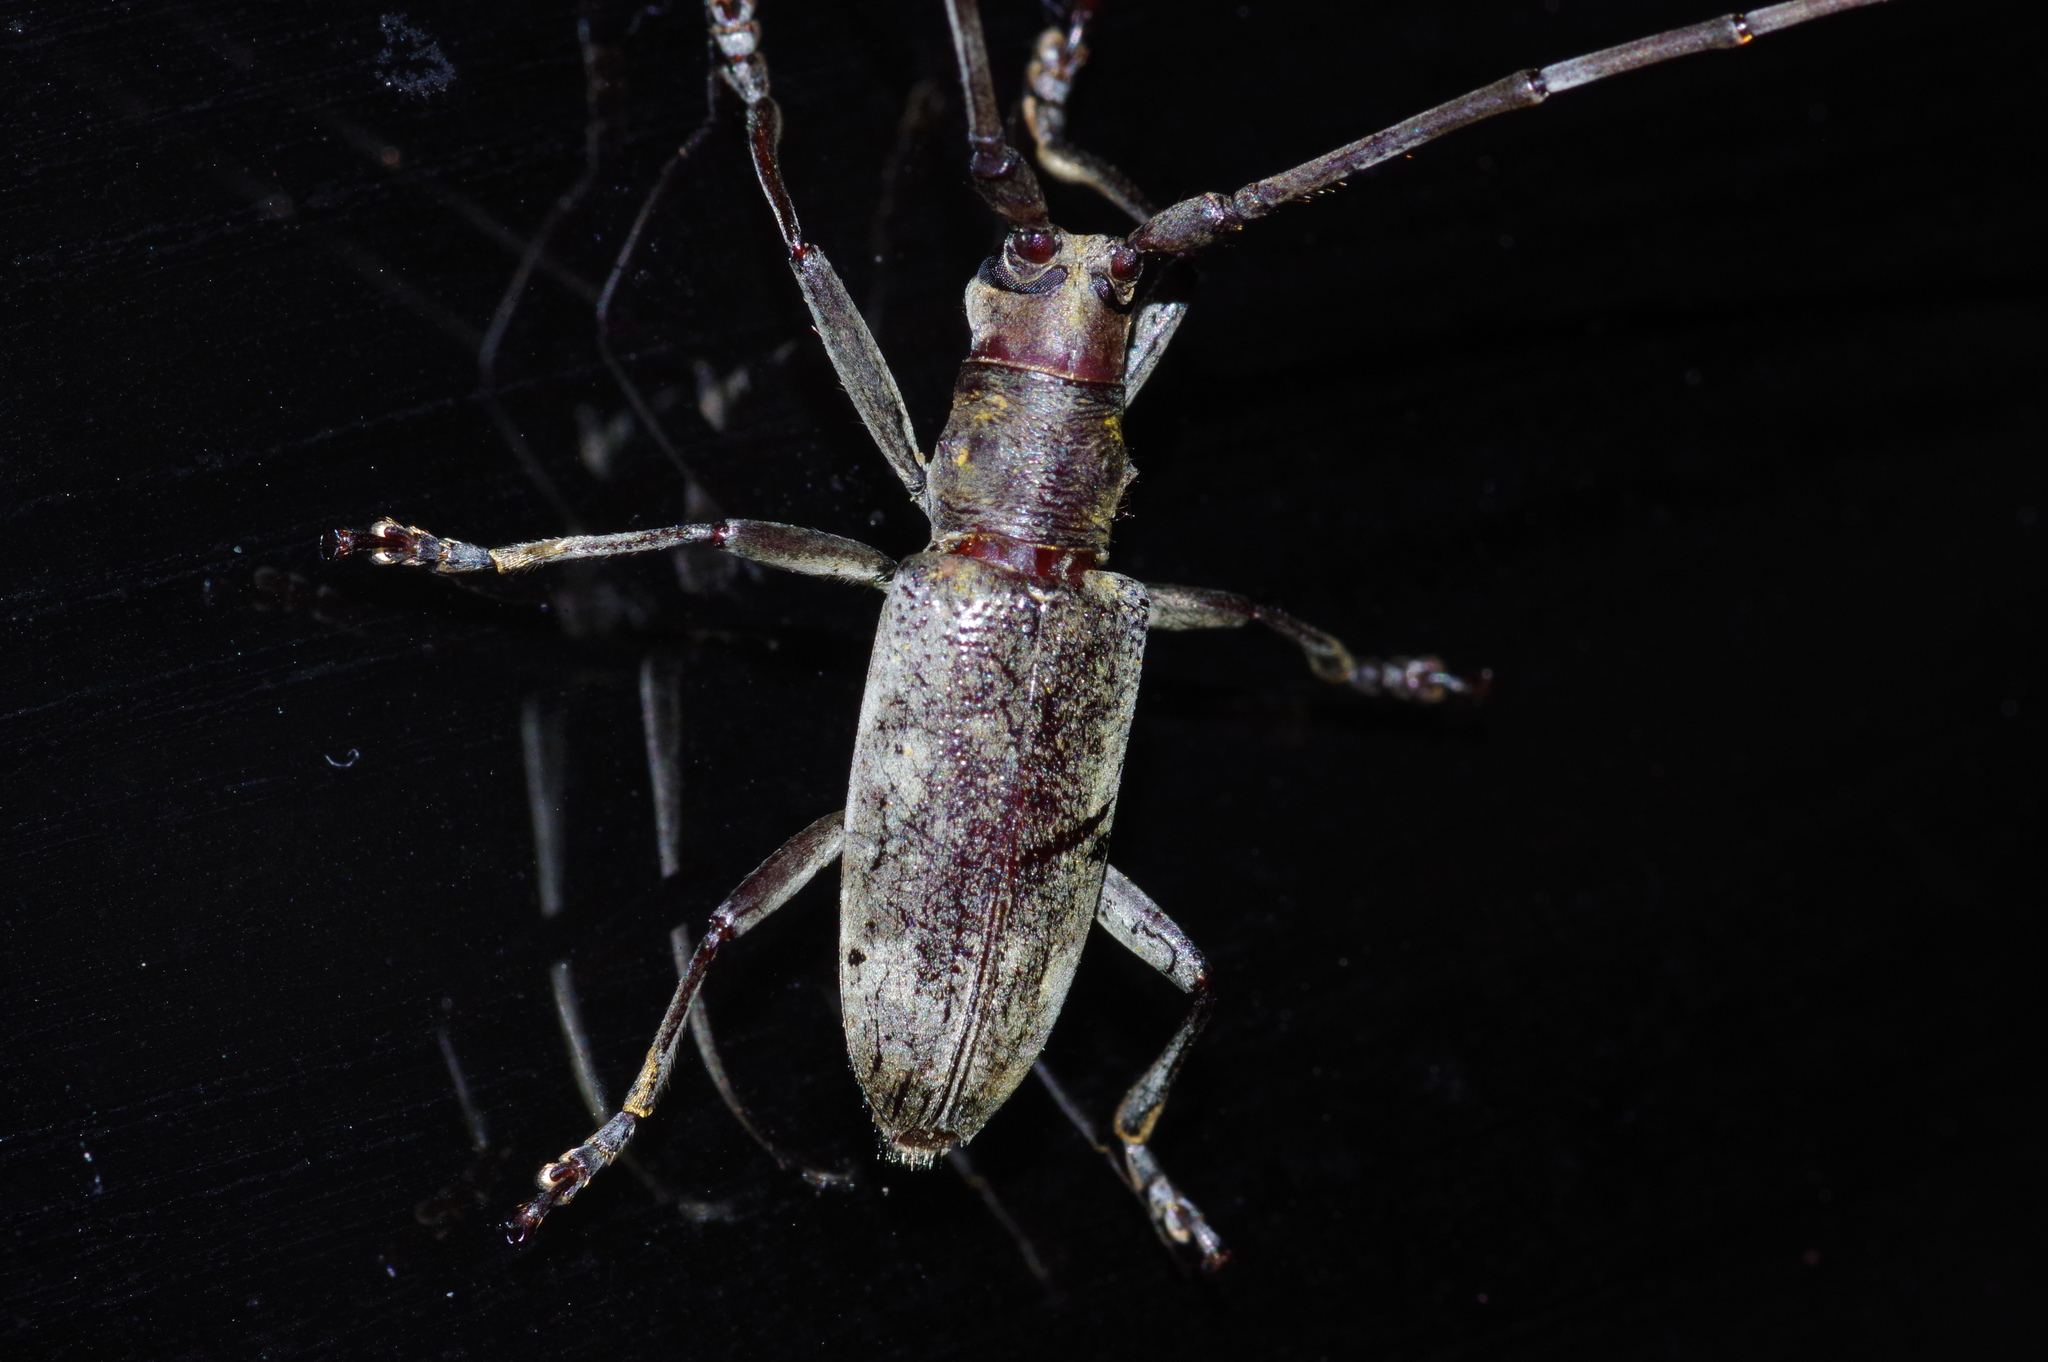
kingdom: Animalia
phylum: Arthropoda
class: Insecta
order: Coleoptera
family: Cerambycidae
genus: Psacothea
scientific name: Psacothea hilaris
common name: Yellow-spotted longicorn beetle
